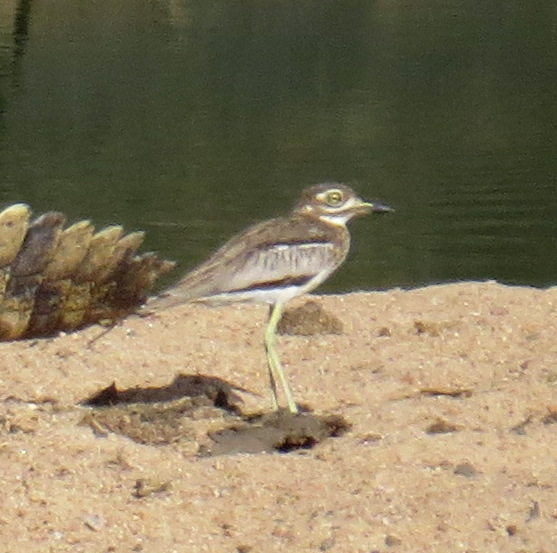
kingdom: Animalia
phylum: Chordata
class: Aves
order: Charadriiformes
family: Burhinidae
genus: Burhinus
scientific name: Burhinus vermiculatus
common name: Water thick-knee
